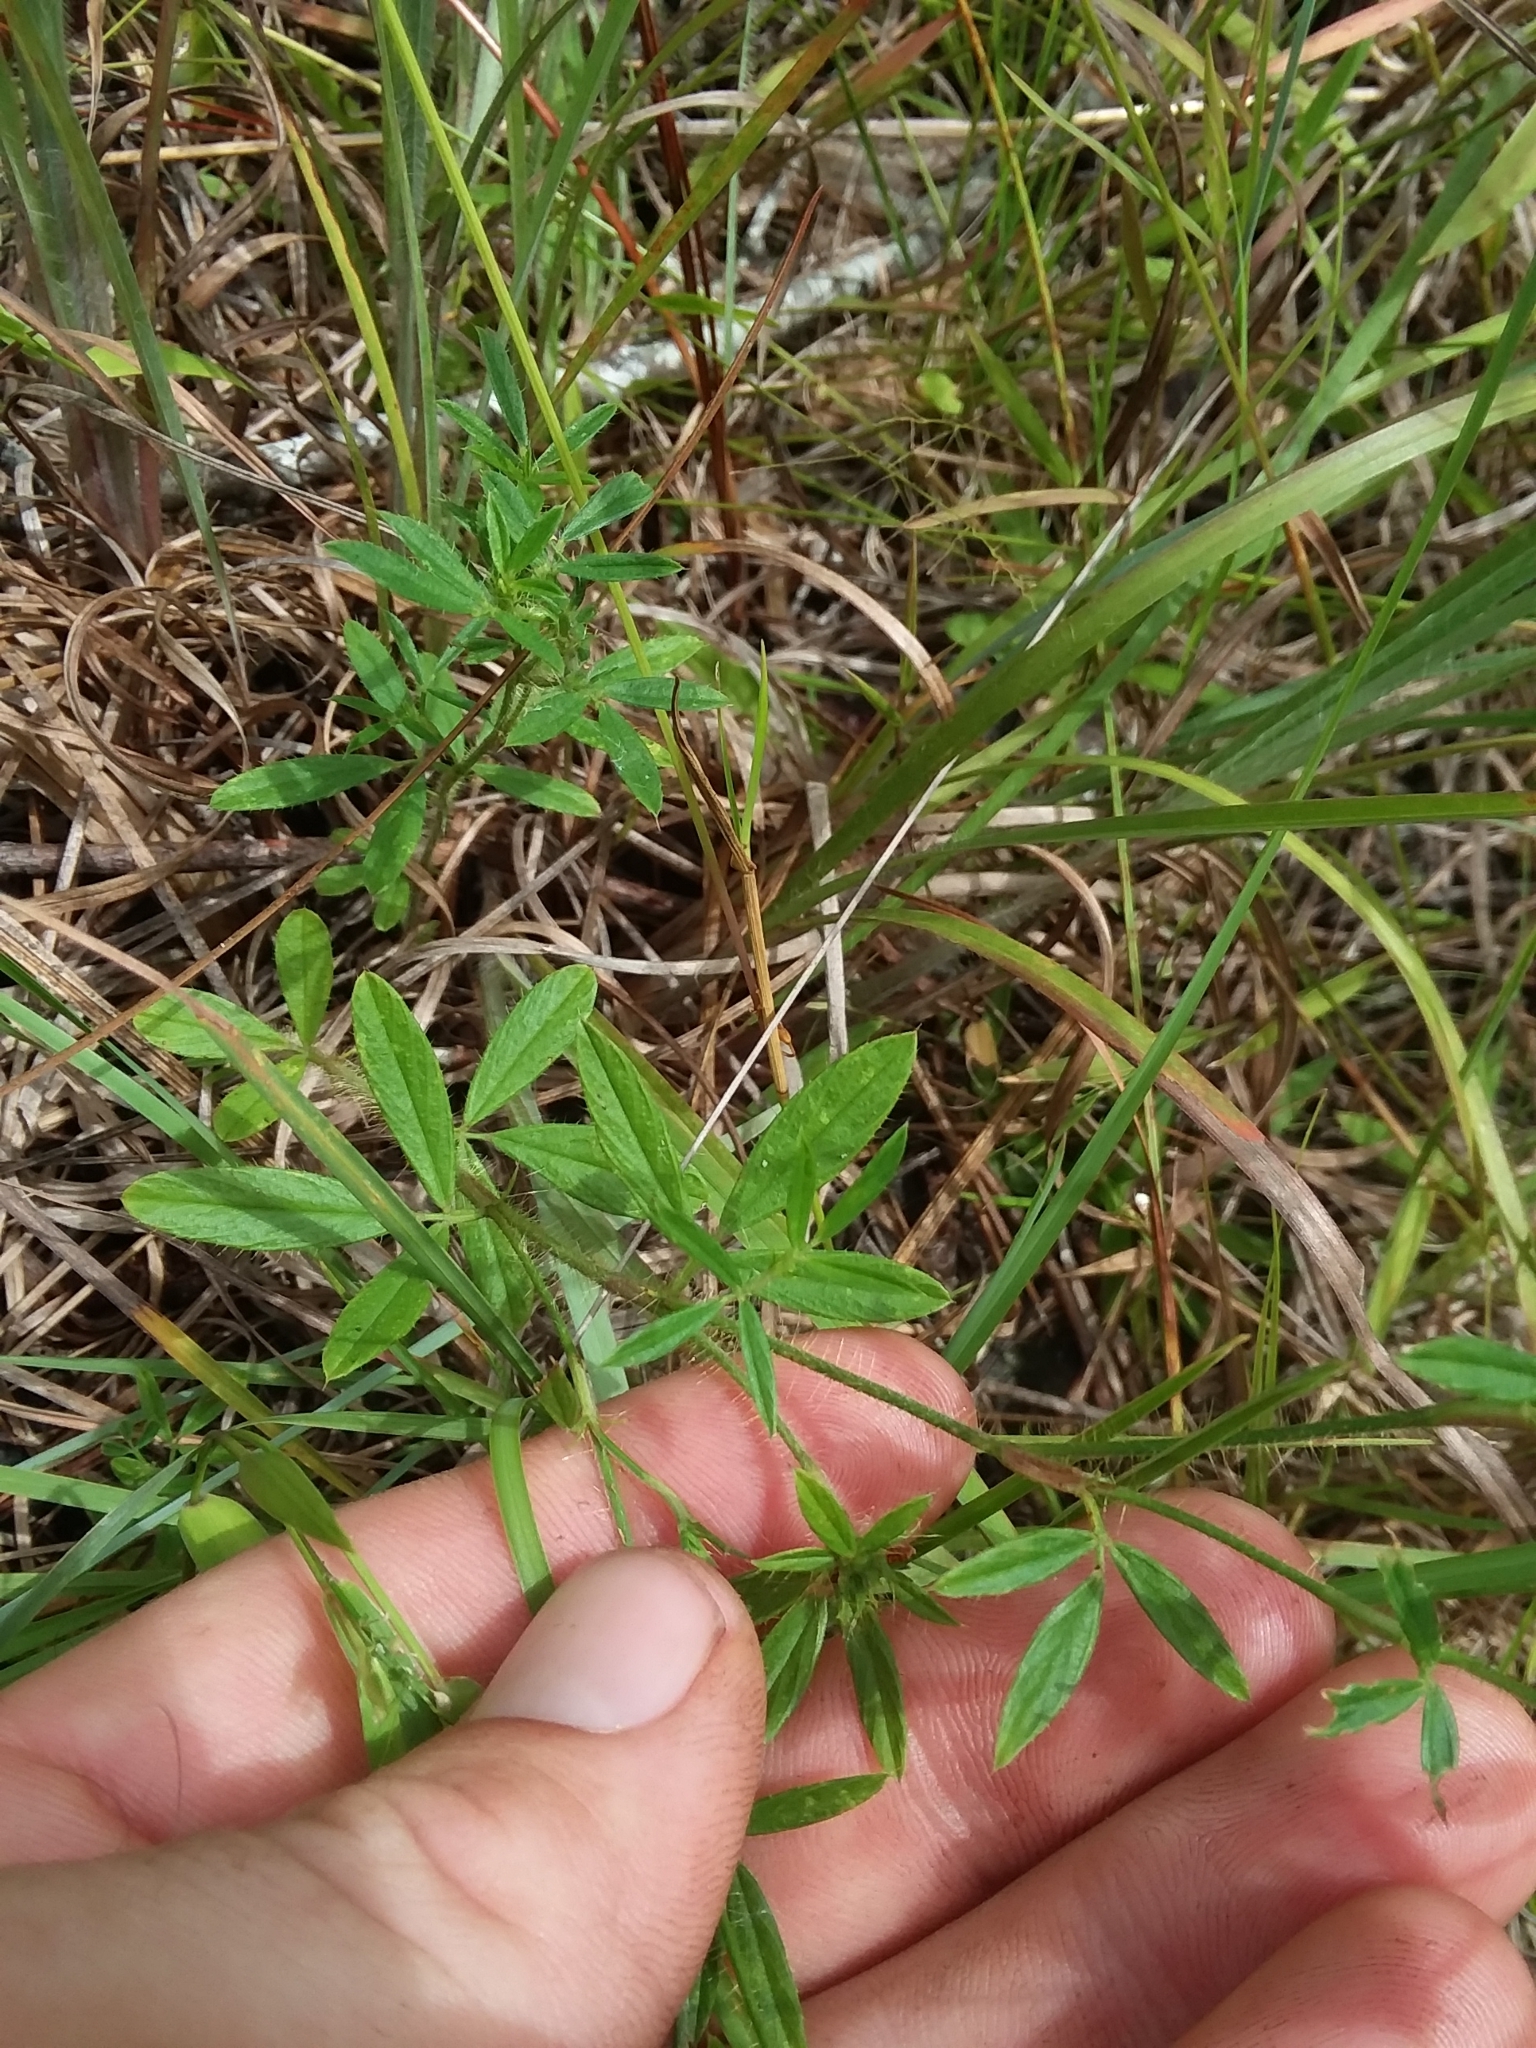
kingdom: Plantae
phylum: Tracheophyta
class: Magnoliopsida
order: Fabales
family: Fabaceae
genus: Stylosanthes
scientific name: Stylosanthes biflora
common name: Two-flower pencil-flower
